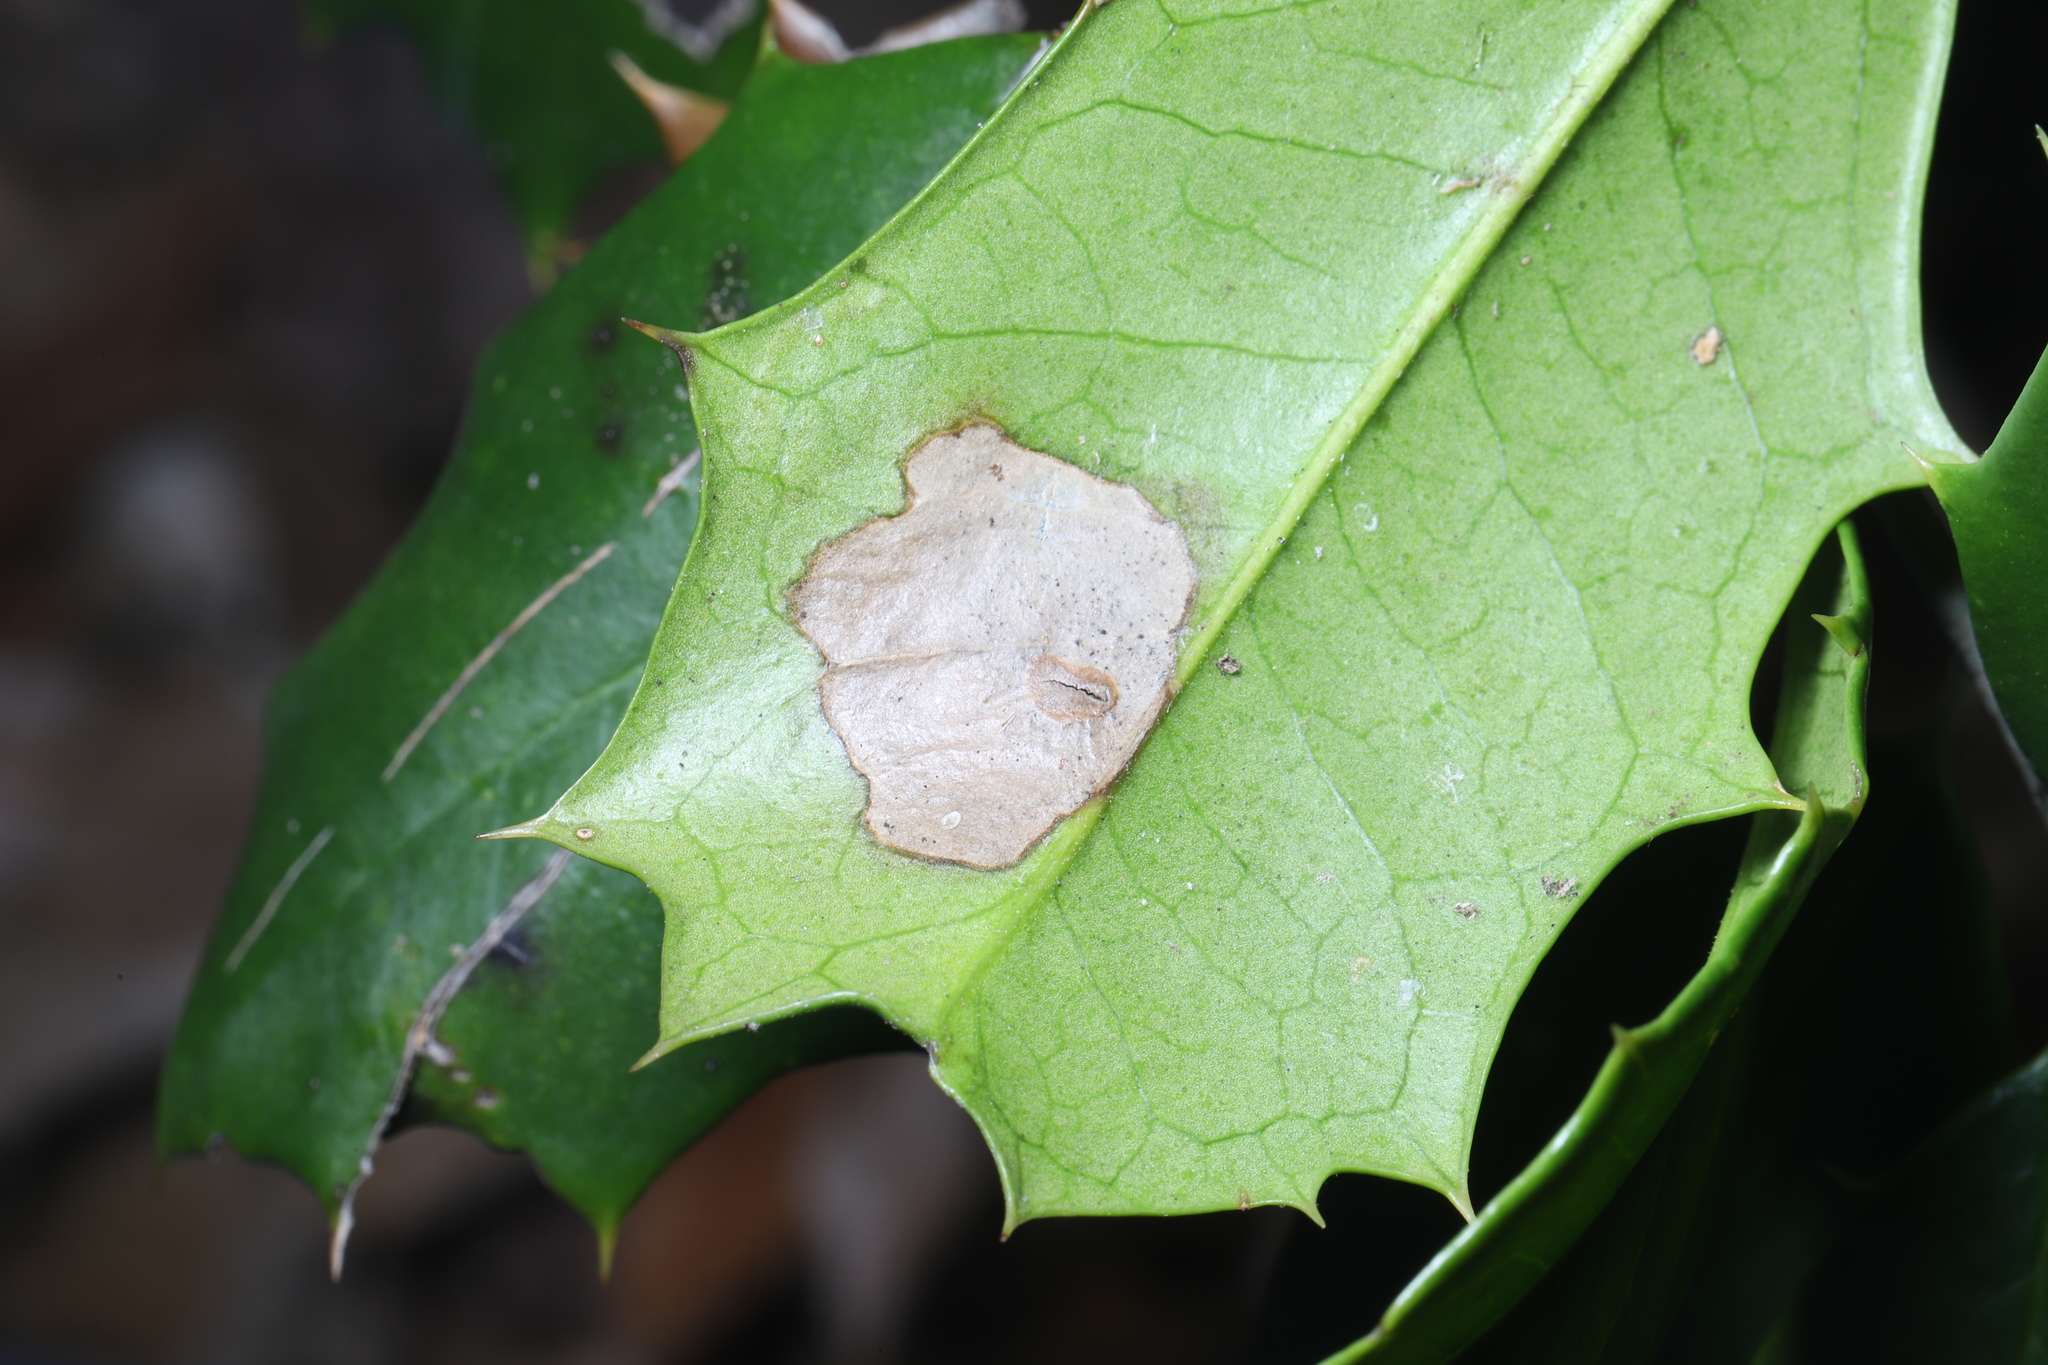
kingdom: Animalia
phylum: Arthropoda
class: Insecta
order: Diptera
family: Agromyzidae
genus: Phytomyza
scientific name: Phytomyza ilicicola
